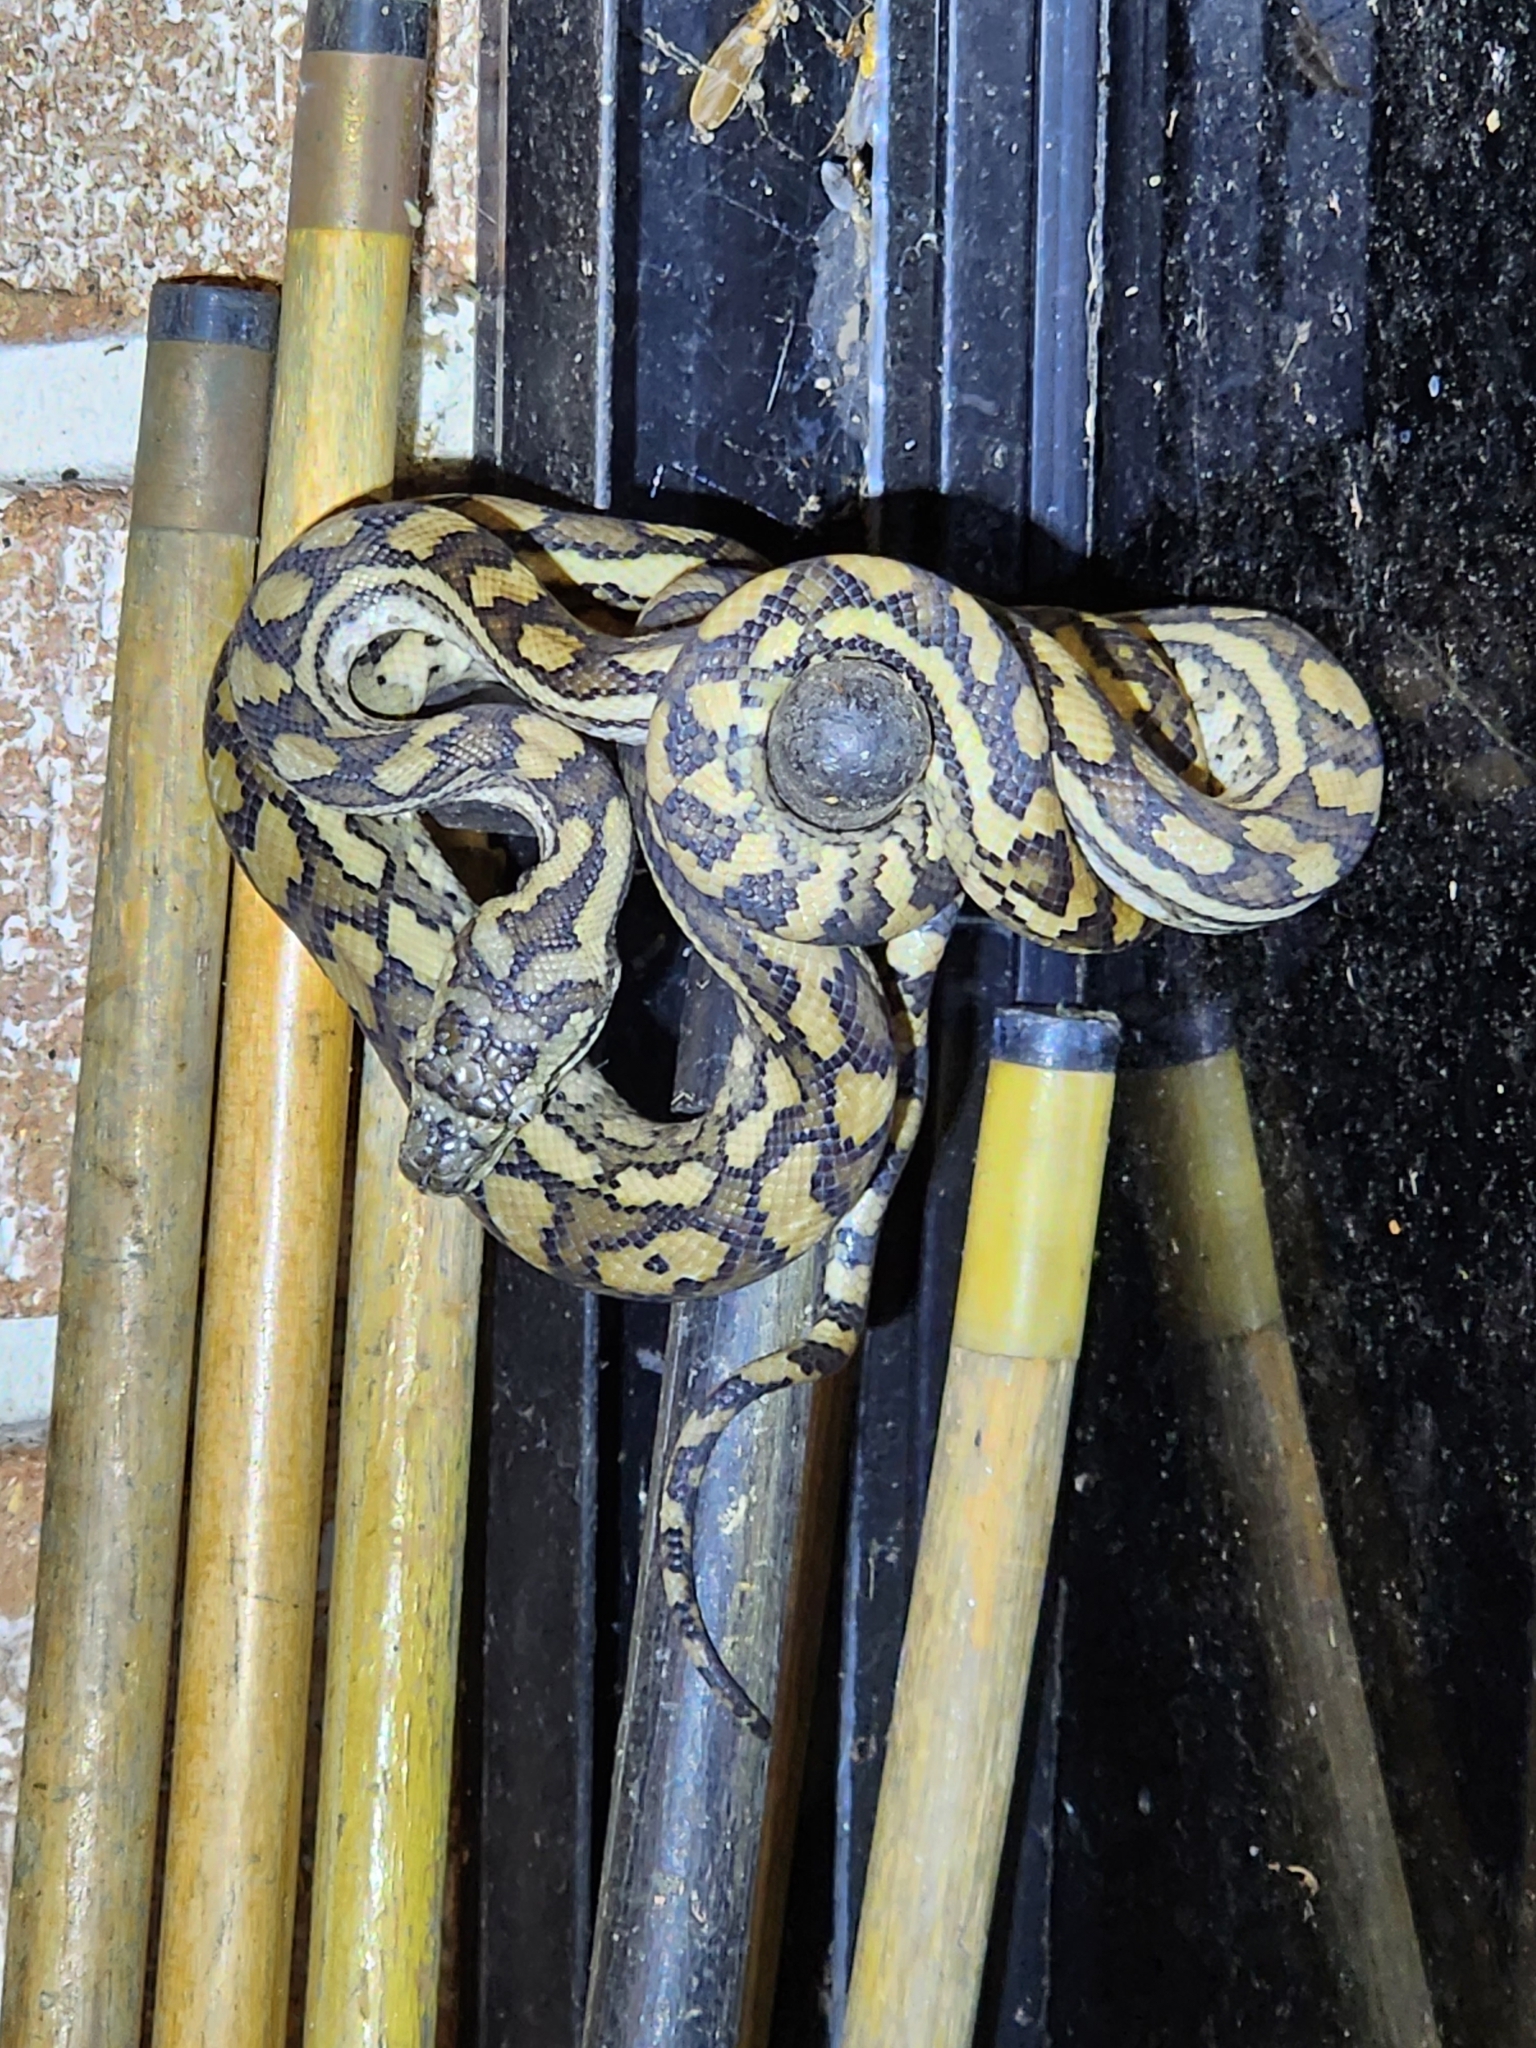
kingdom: Animalia
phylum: Chordata
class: Squamata
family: Pythonidae
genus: Morelia
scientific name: Morelia spilota
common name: Carpet python
